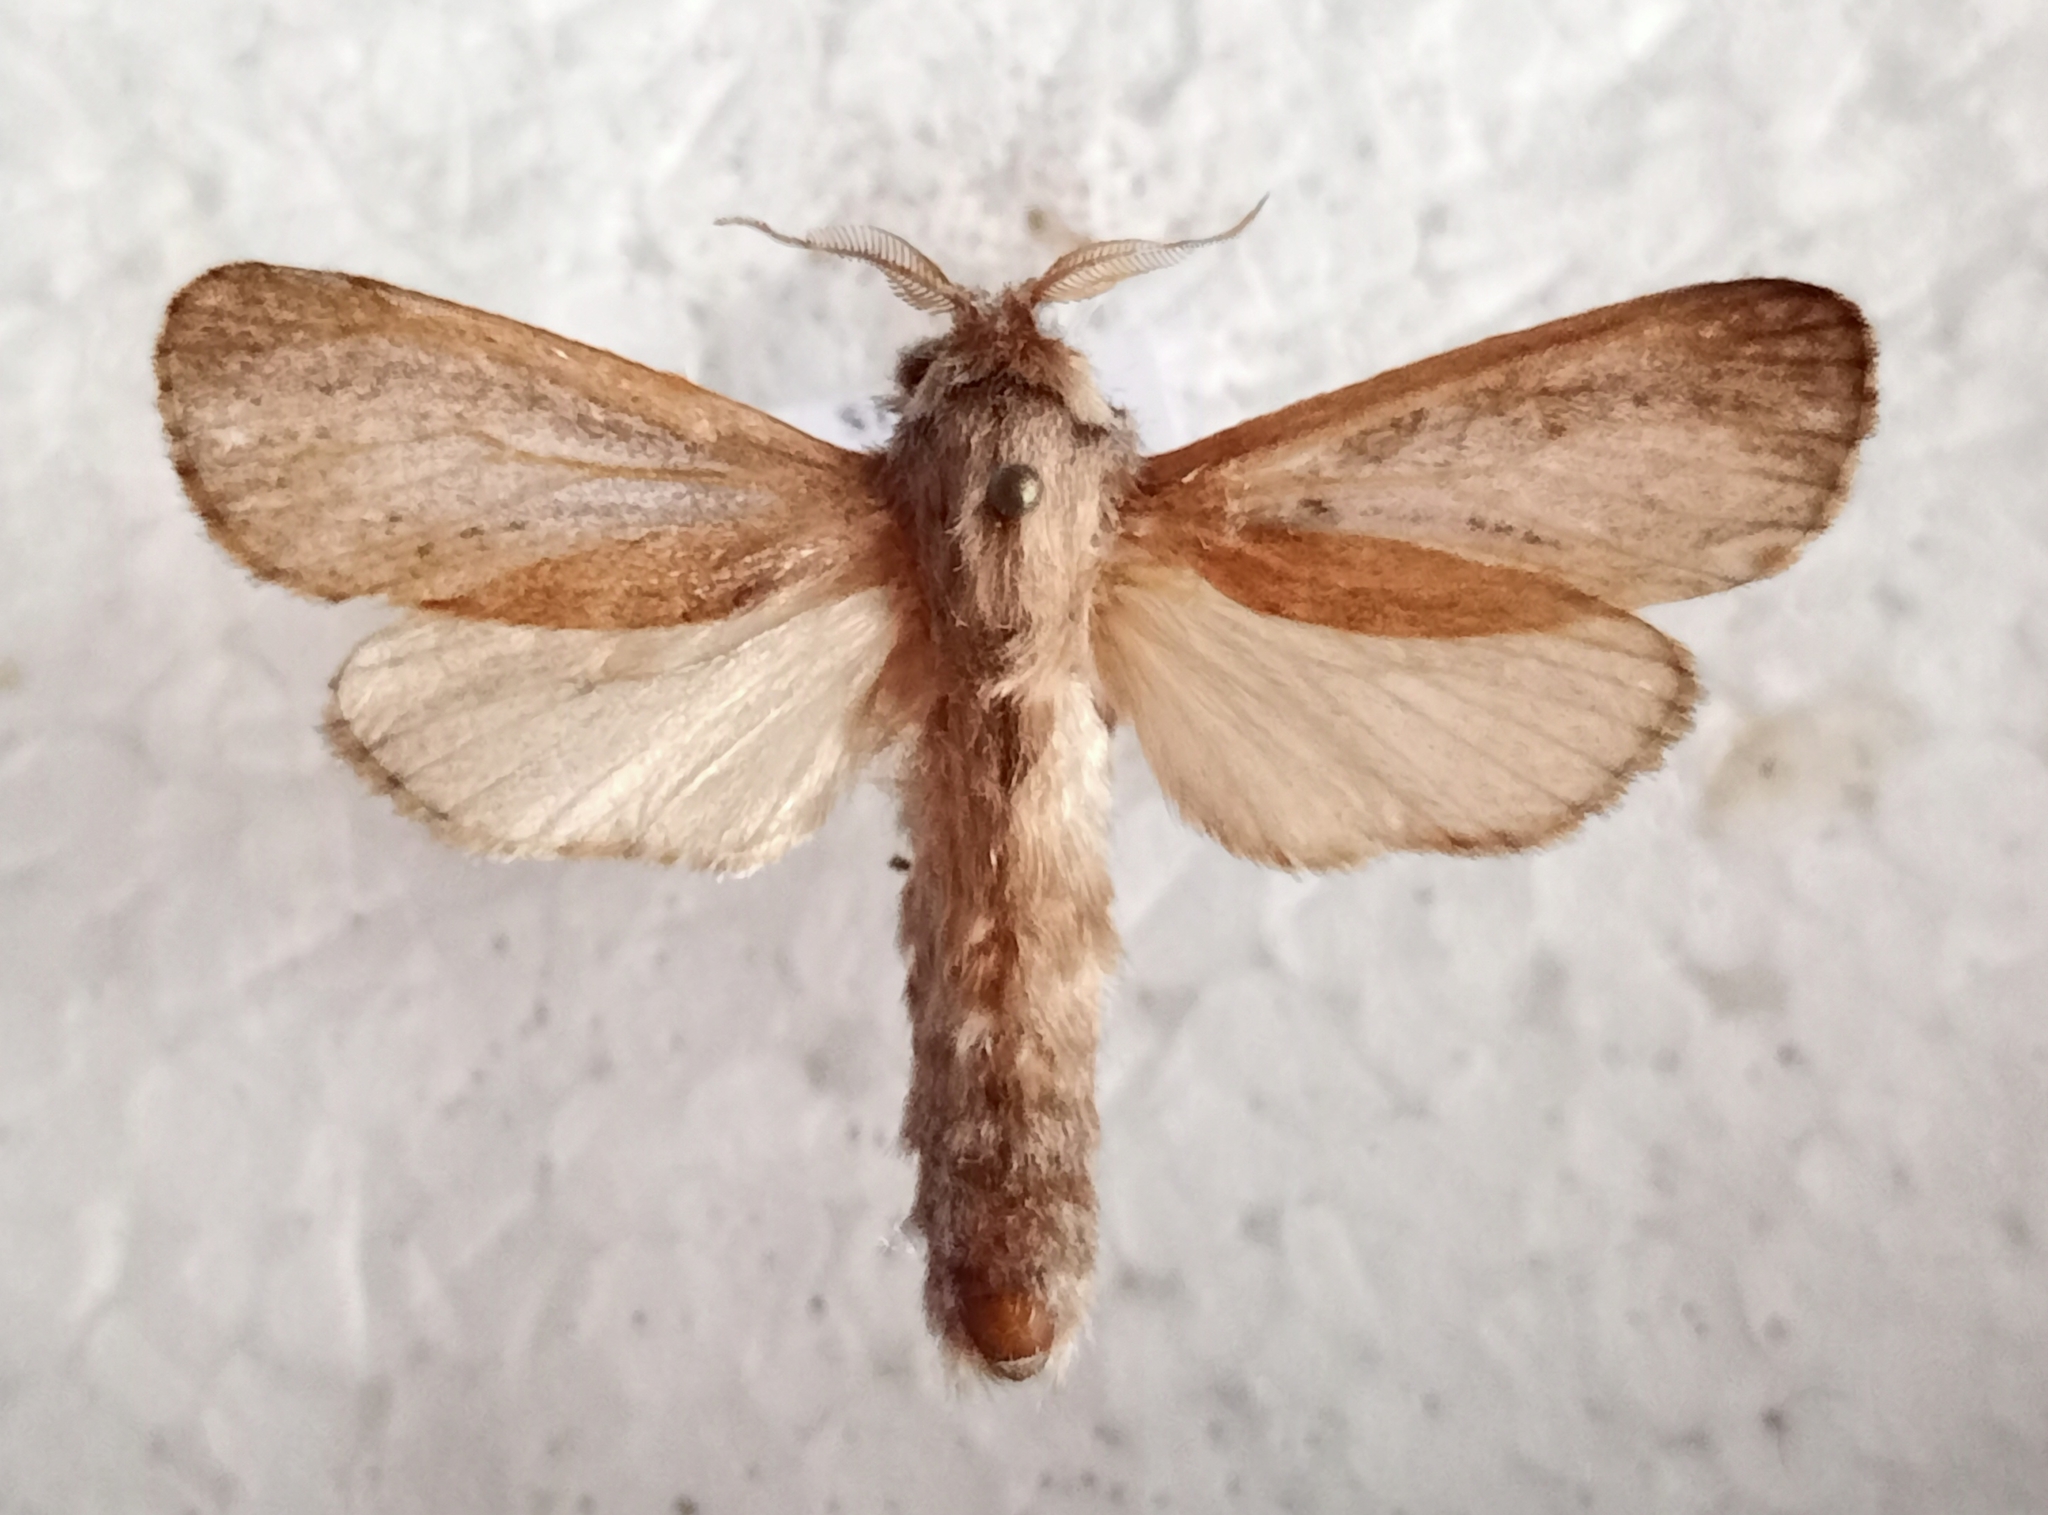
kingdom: Animalia
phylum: Arthropoda
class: Insecta
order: Lepidoptera
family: Cossidae
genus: Phragmataecia
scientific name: Phragmataecia castaneae
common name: Reed leopard
